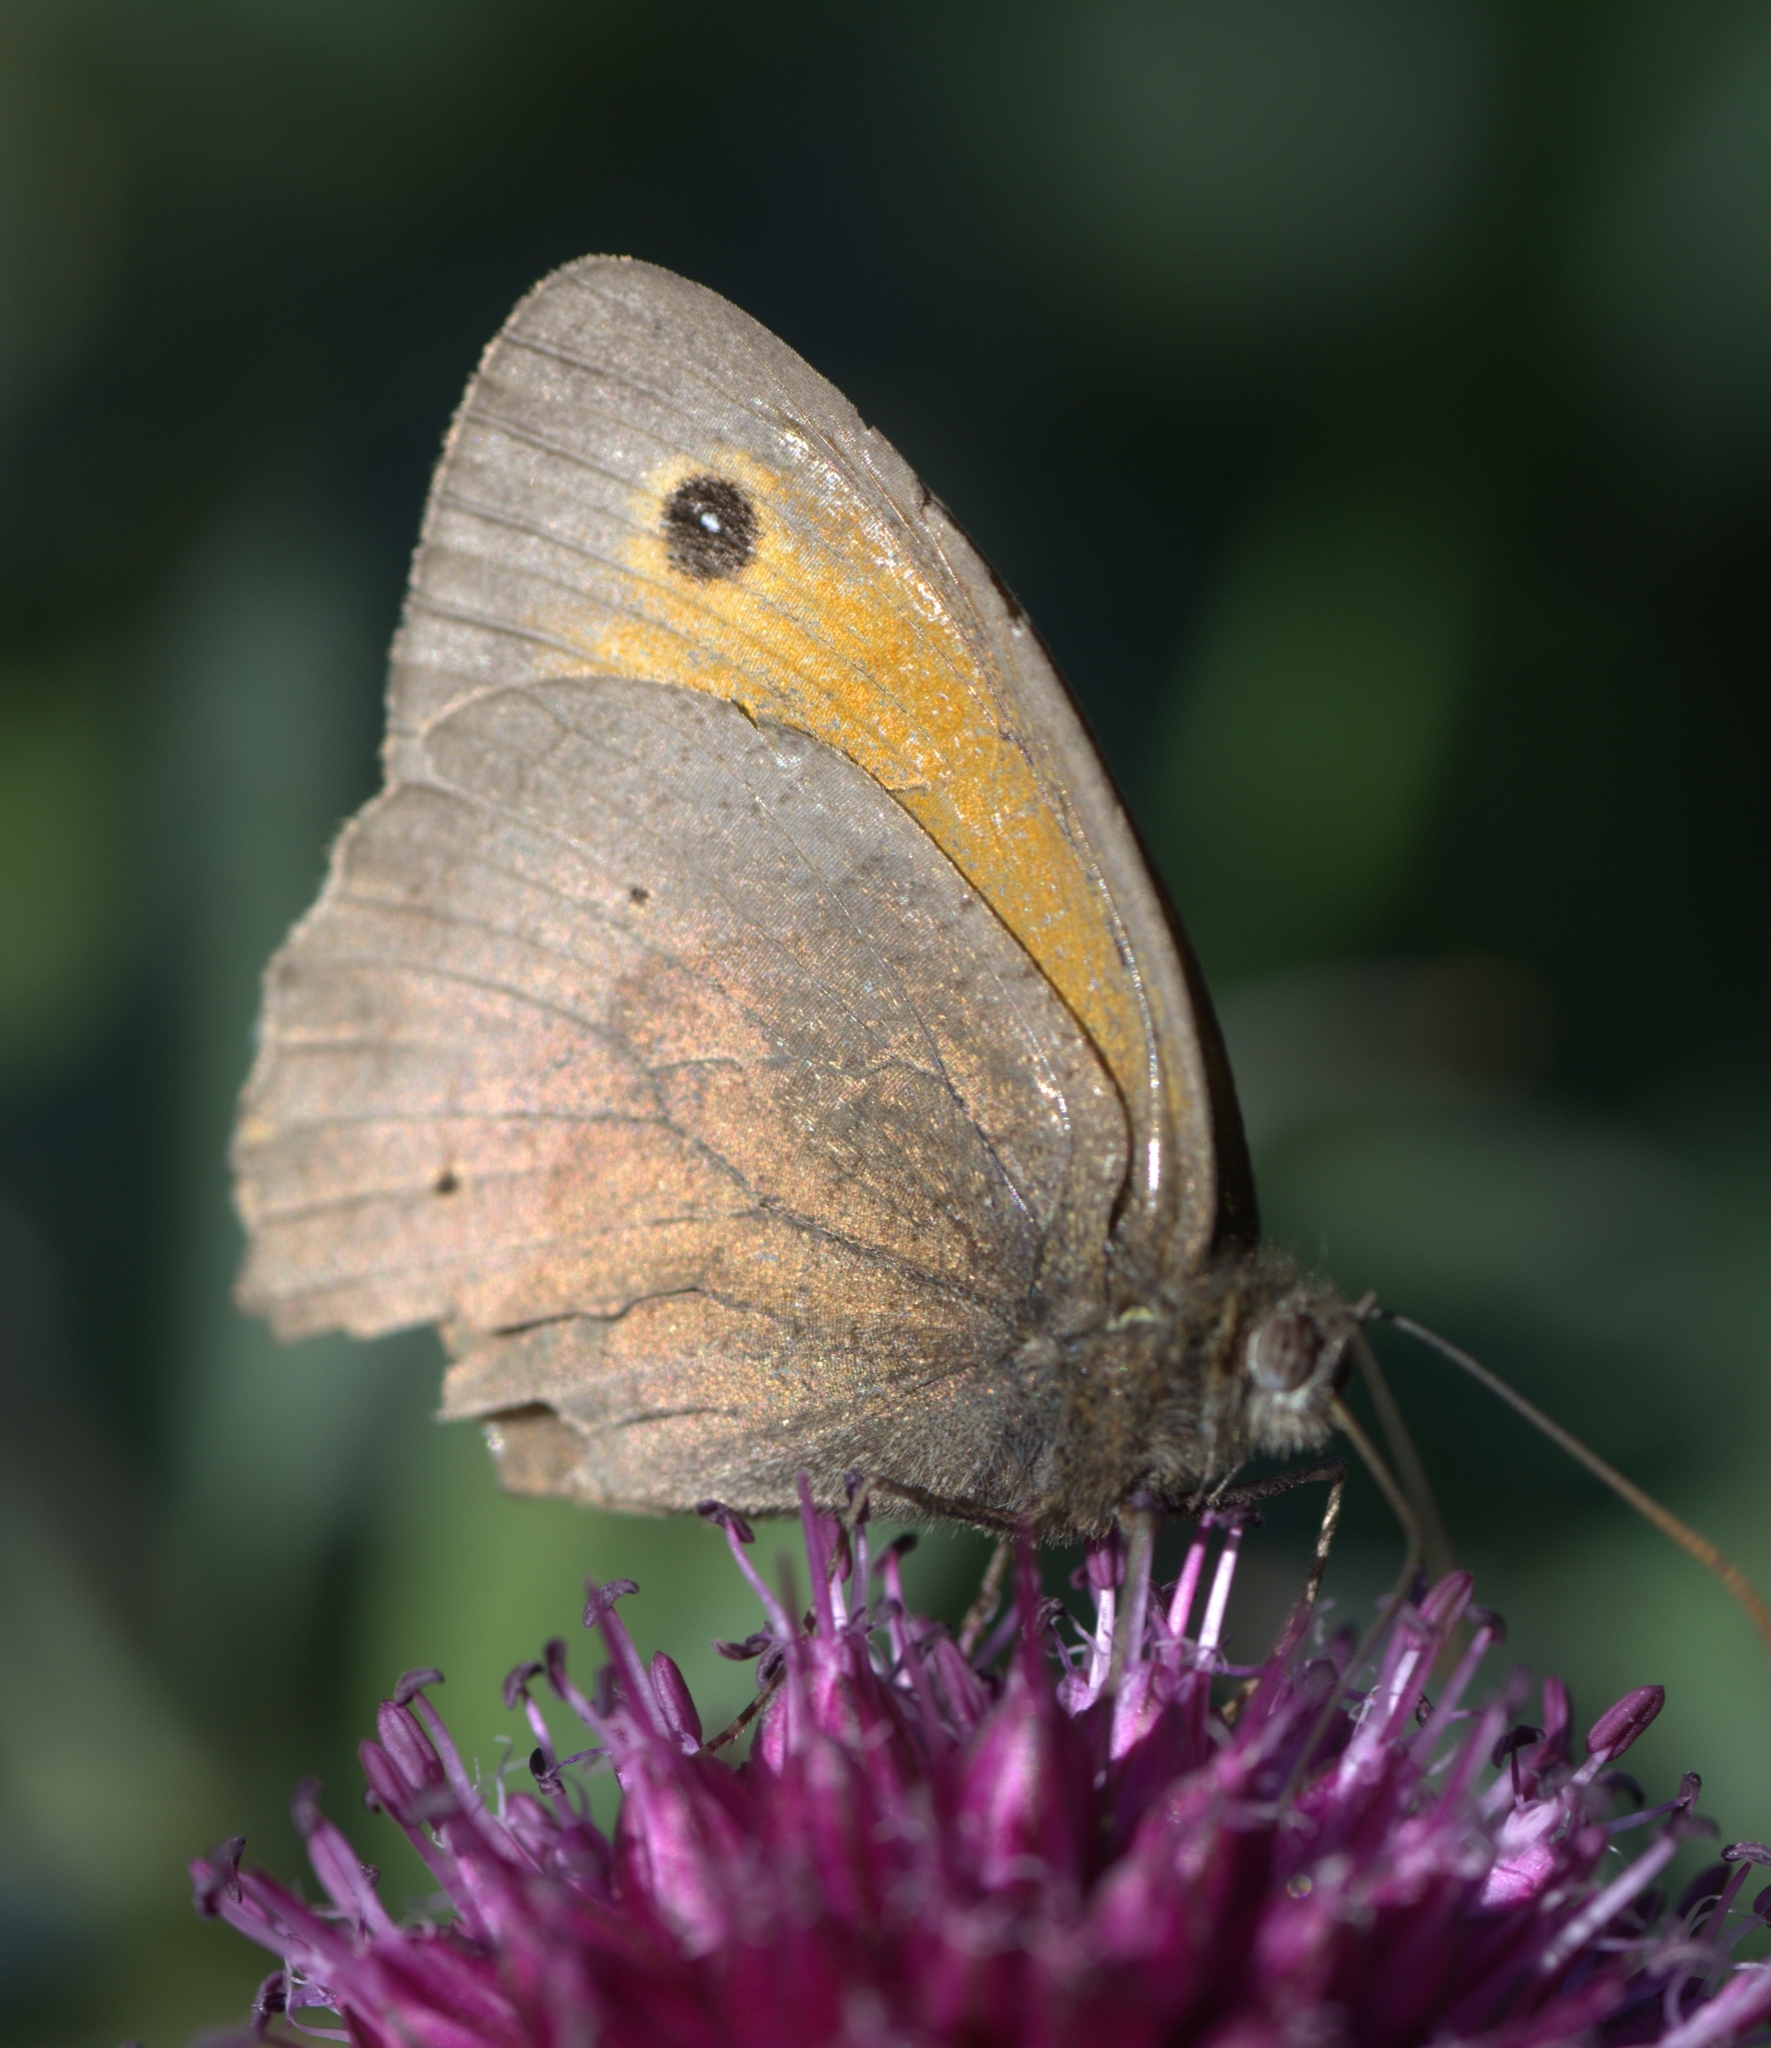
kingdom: Animalia
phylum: Arthropoda
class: Insecta
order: Lepidoptera
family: Nymphalidae
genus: Maniola
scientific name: Maniola jurtina
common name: Meadow brown
